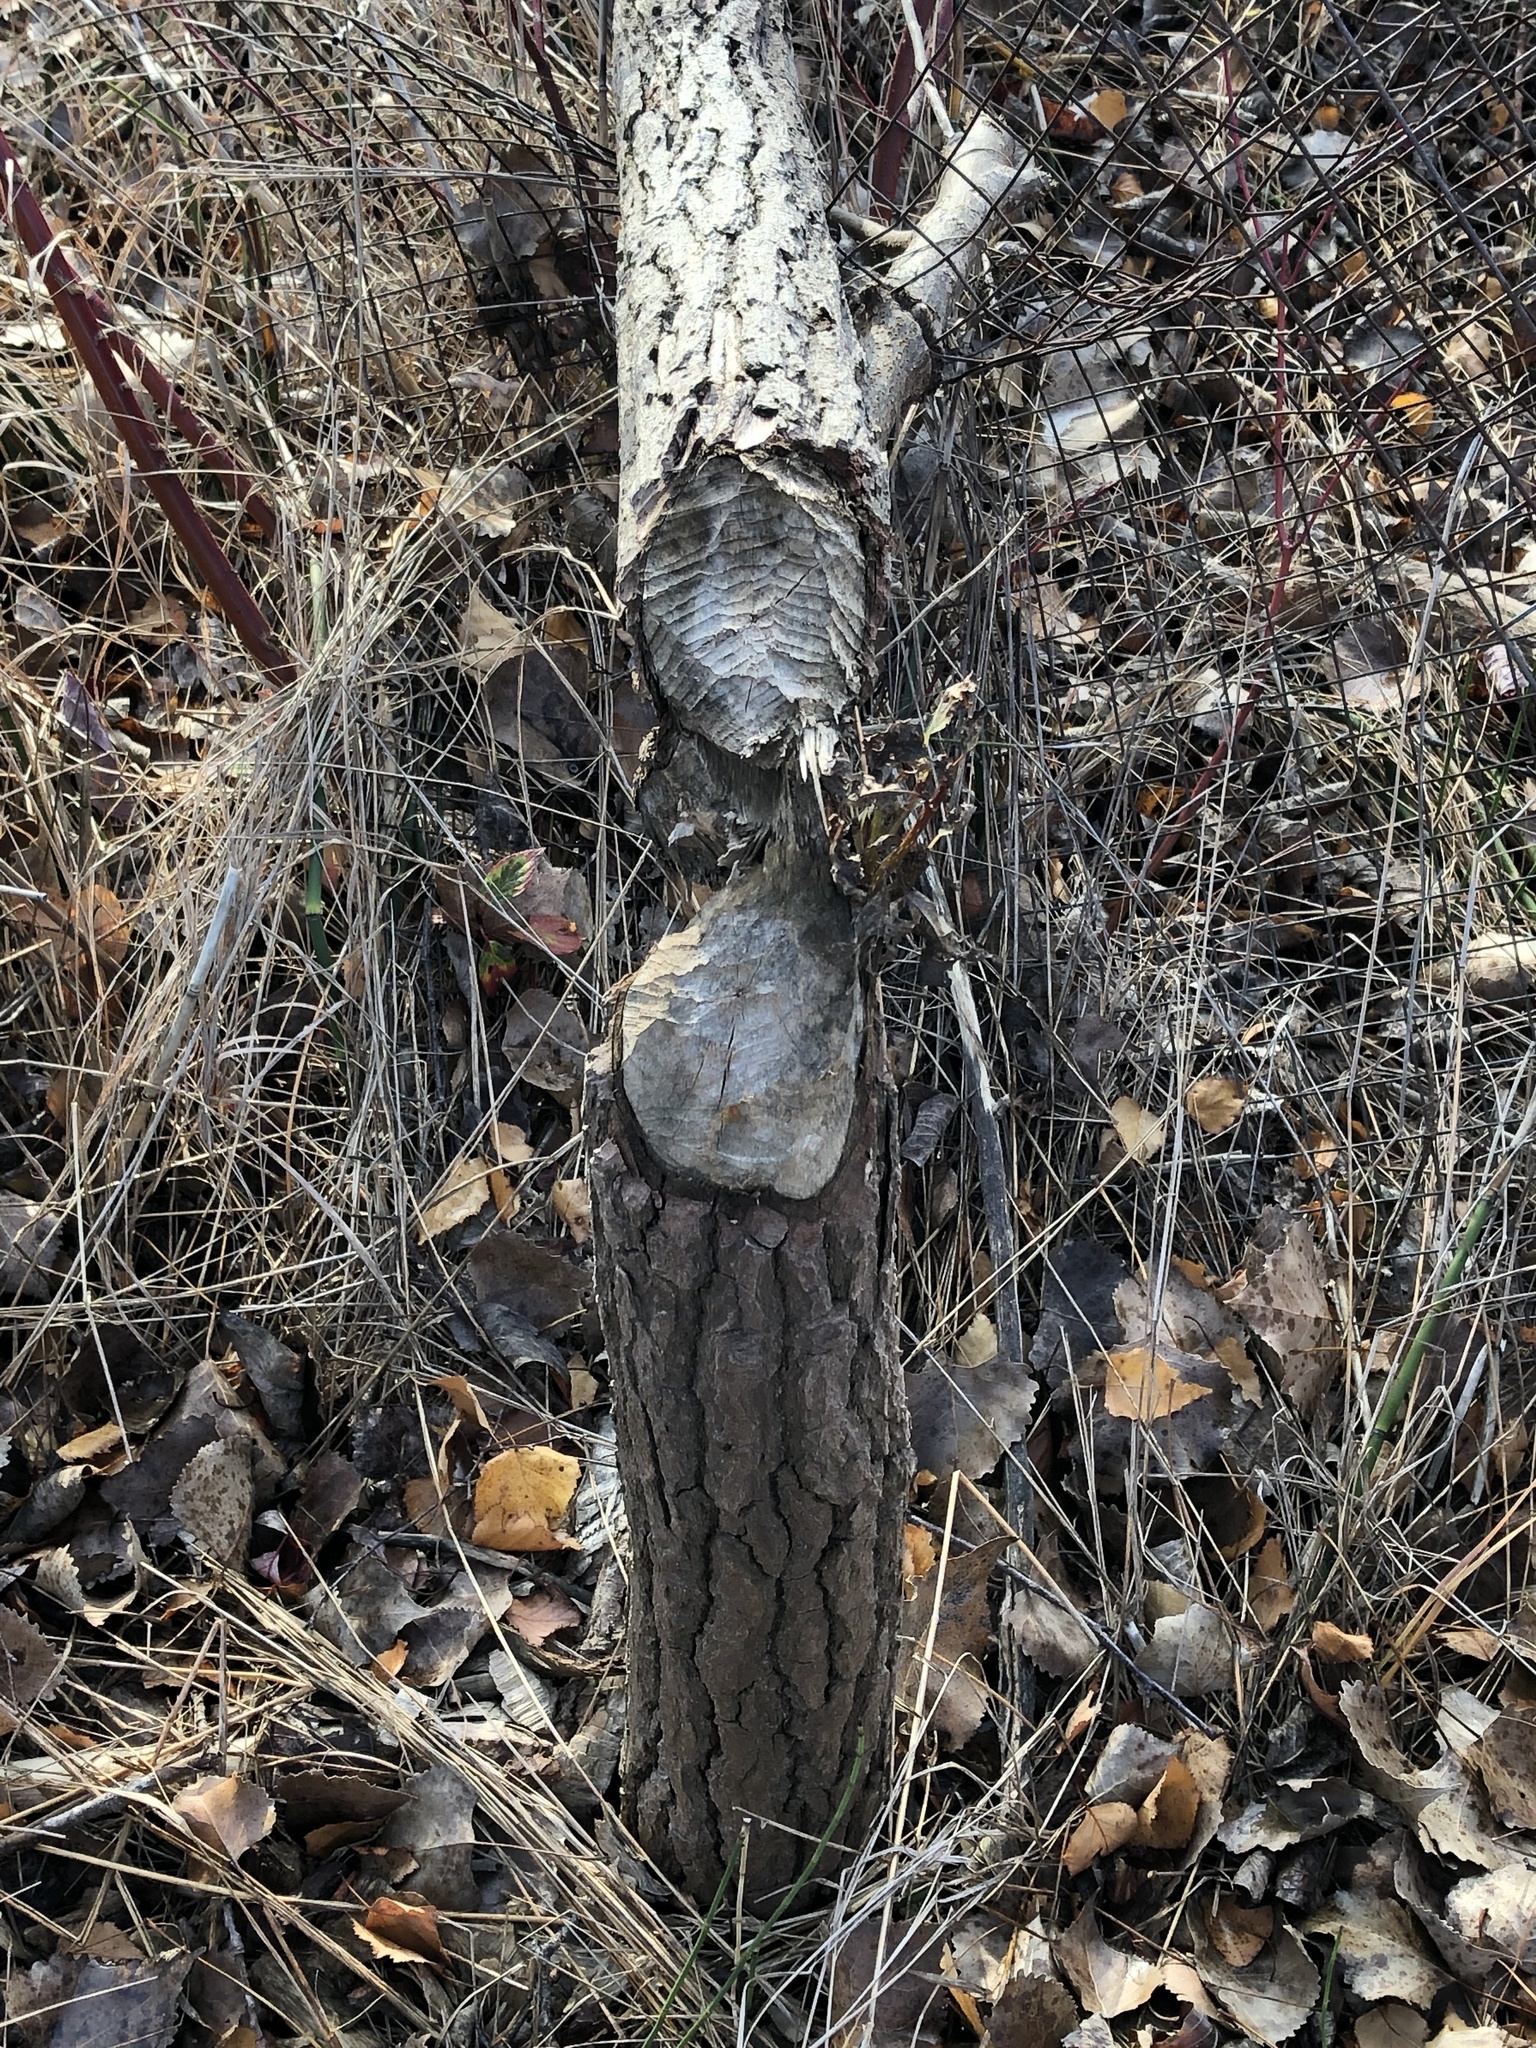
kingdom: Animalia
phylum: Chordata
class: Mammalia
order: Rodentia
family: Castoridae
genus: Castor
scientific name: Castor canadensis
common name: American beaver
